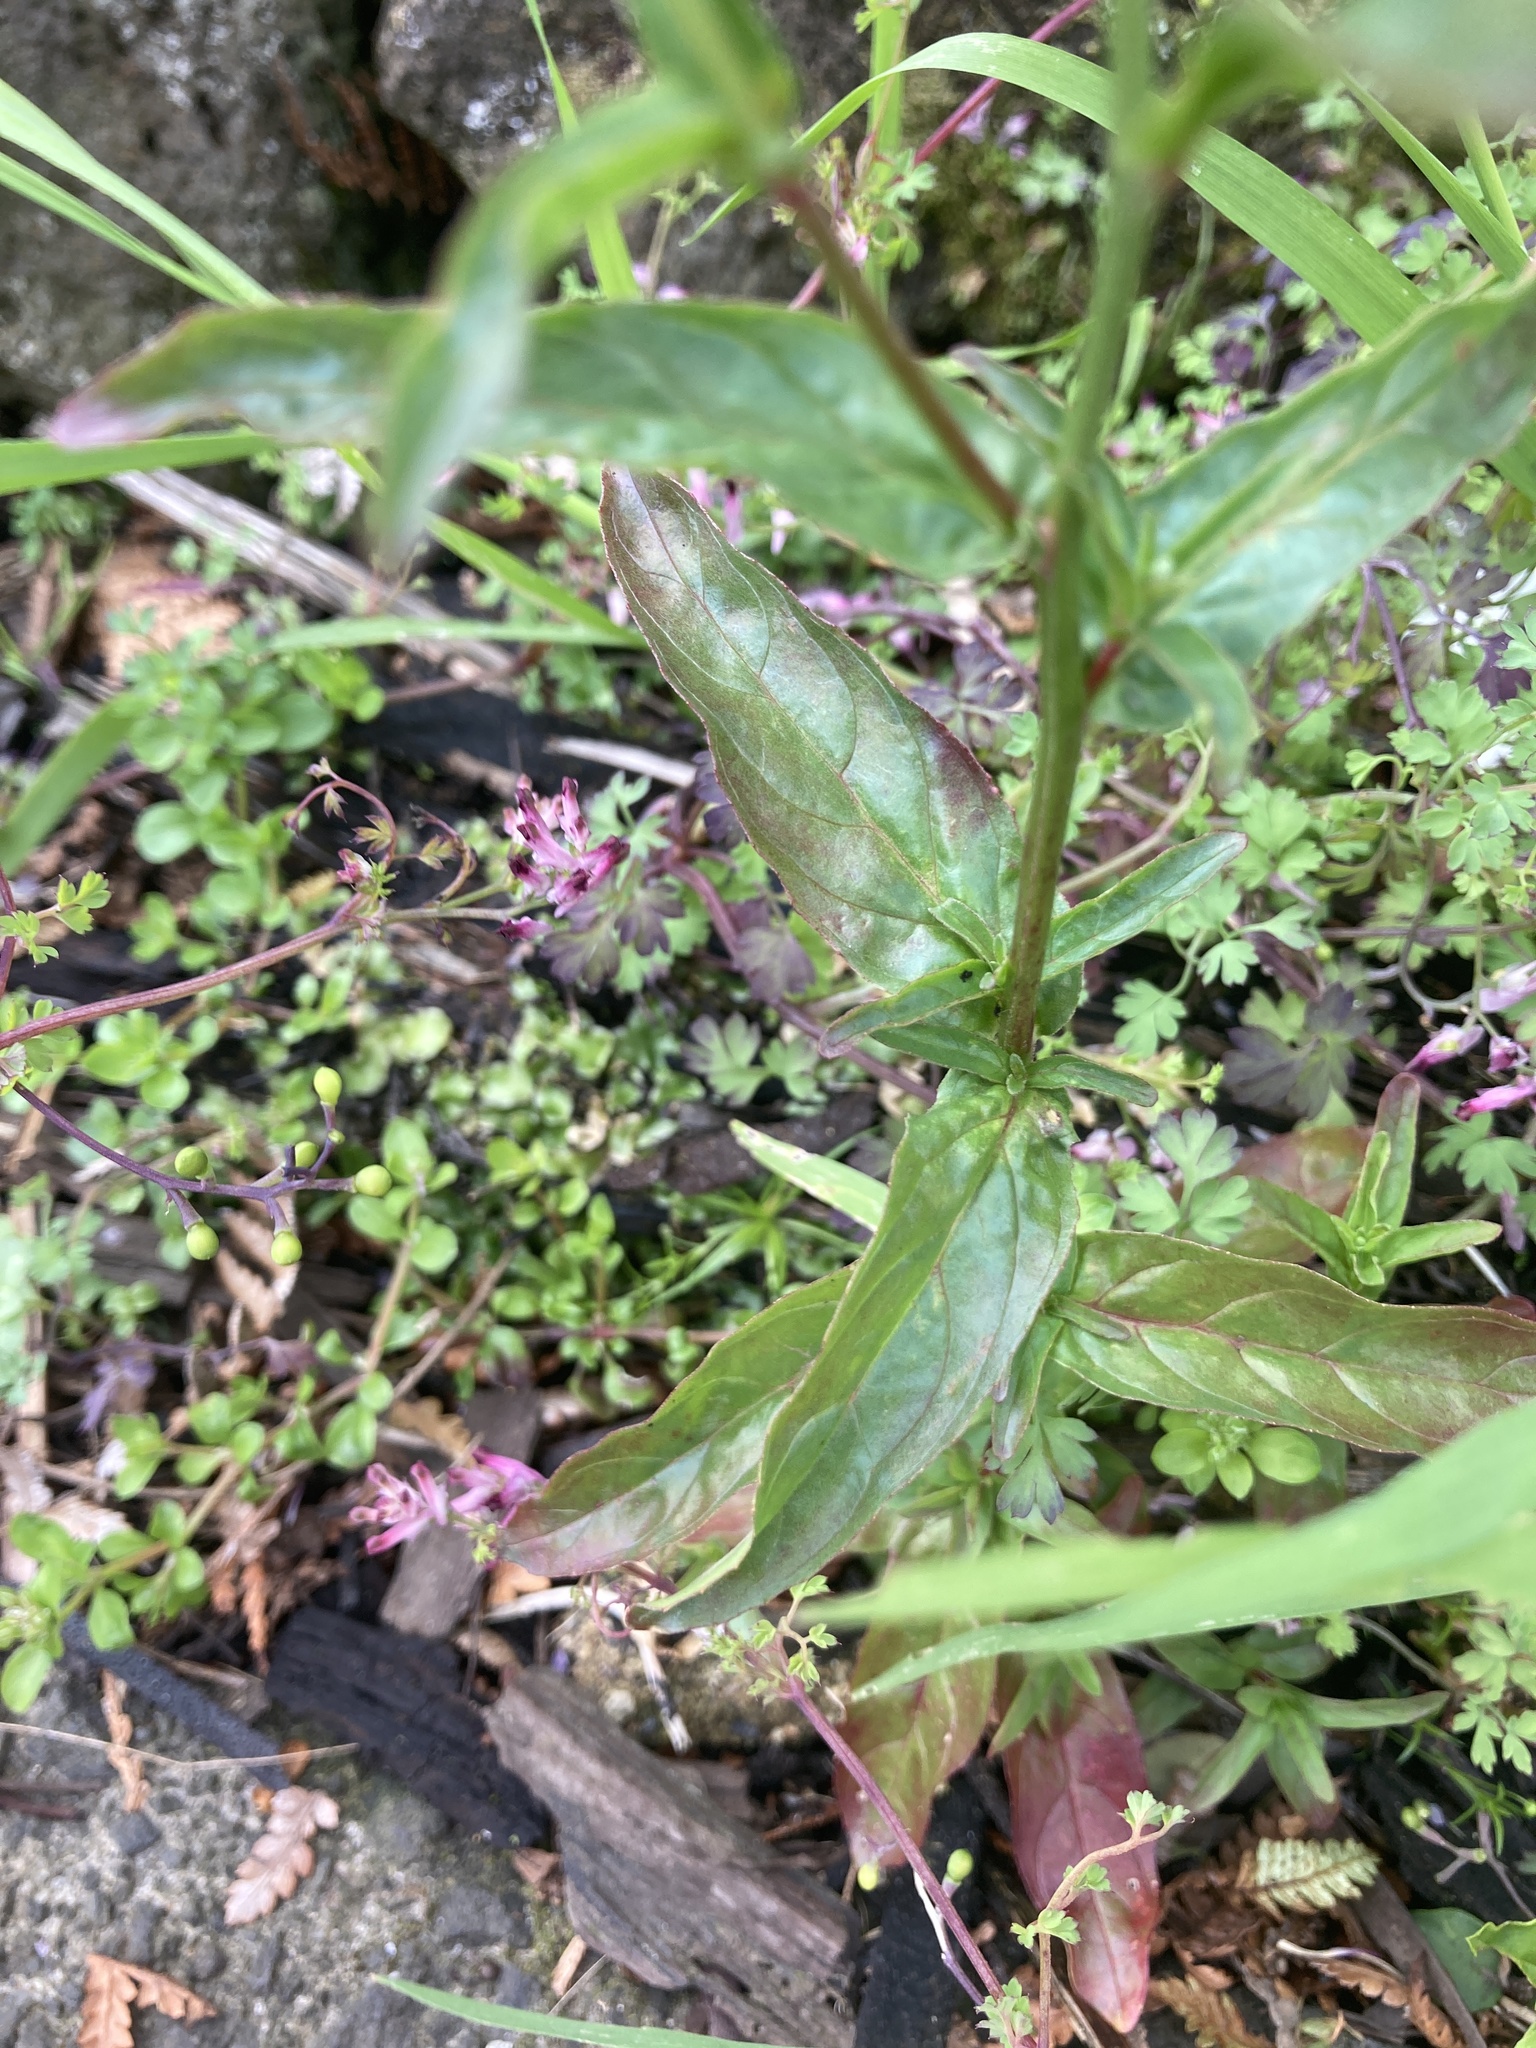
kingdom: Plantae
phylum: Tracheophyta
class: Magnoliopsida
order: Myrtales
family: Onagraceae
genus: Epilobium
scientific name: Epilobium ciliatum
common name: American willowherb
